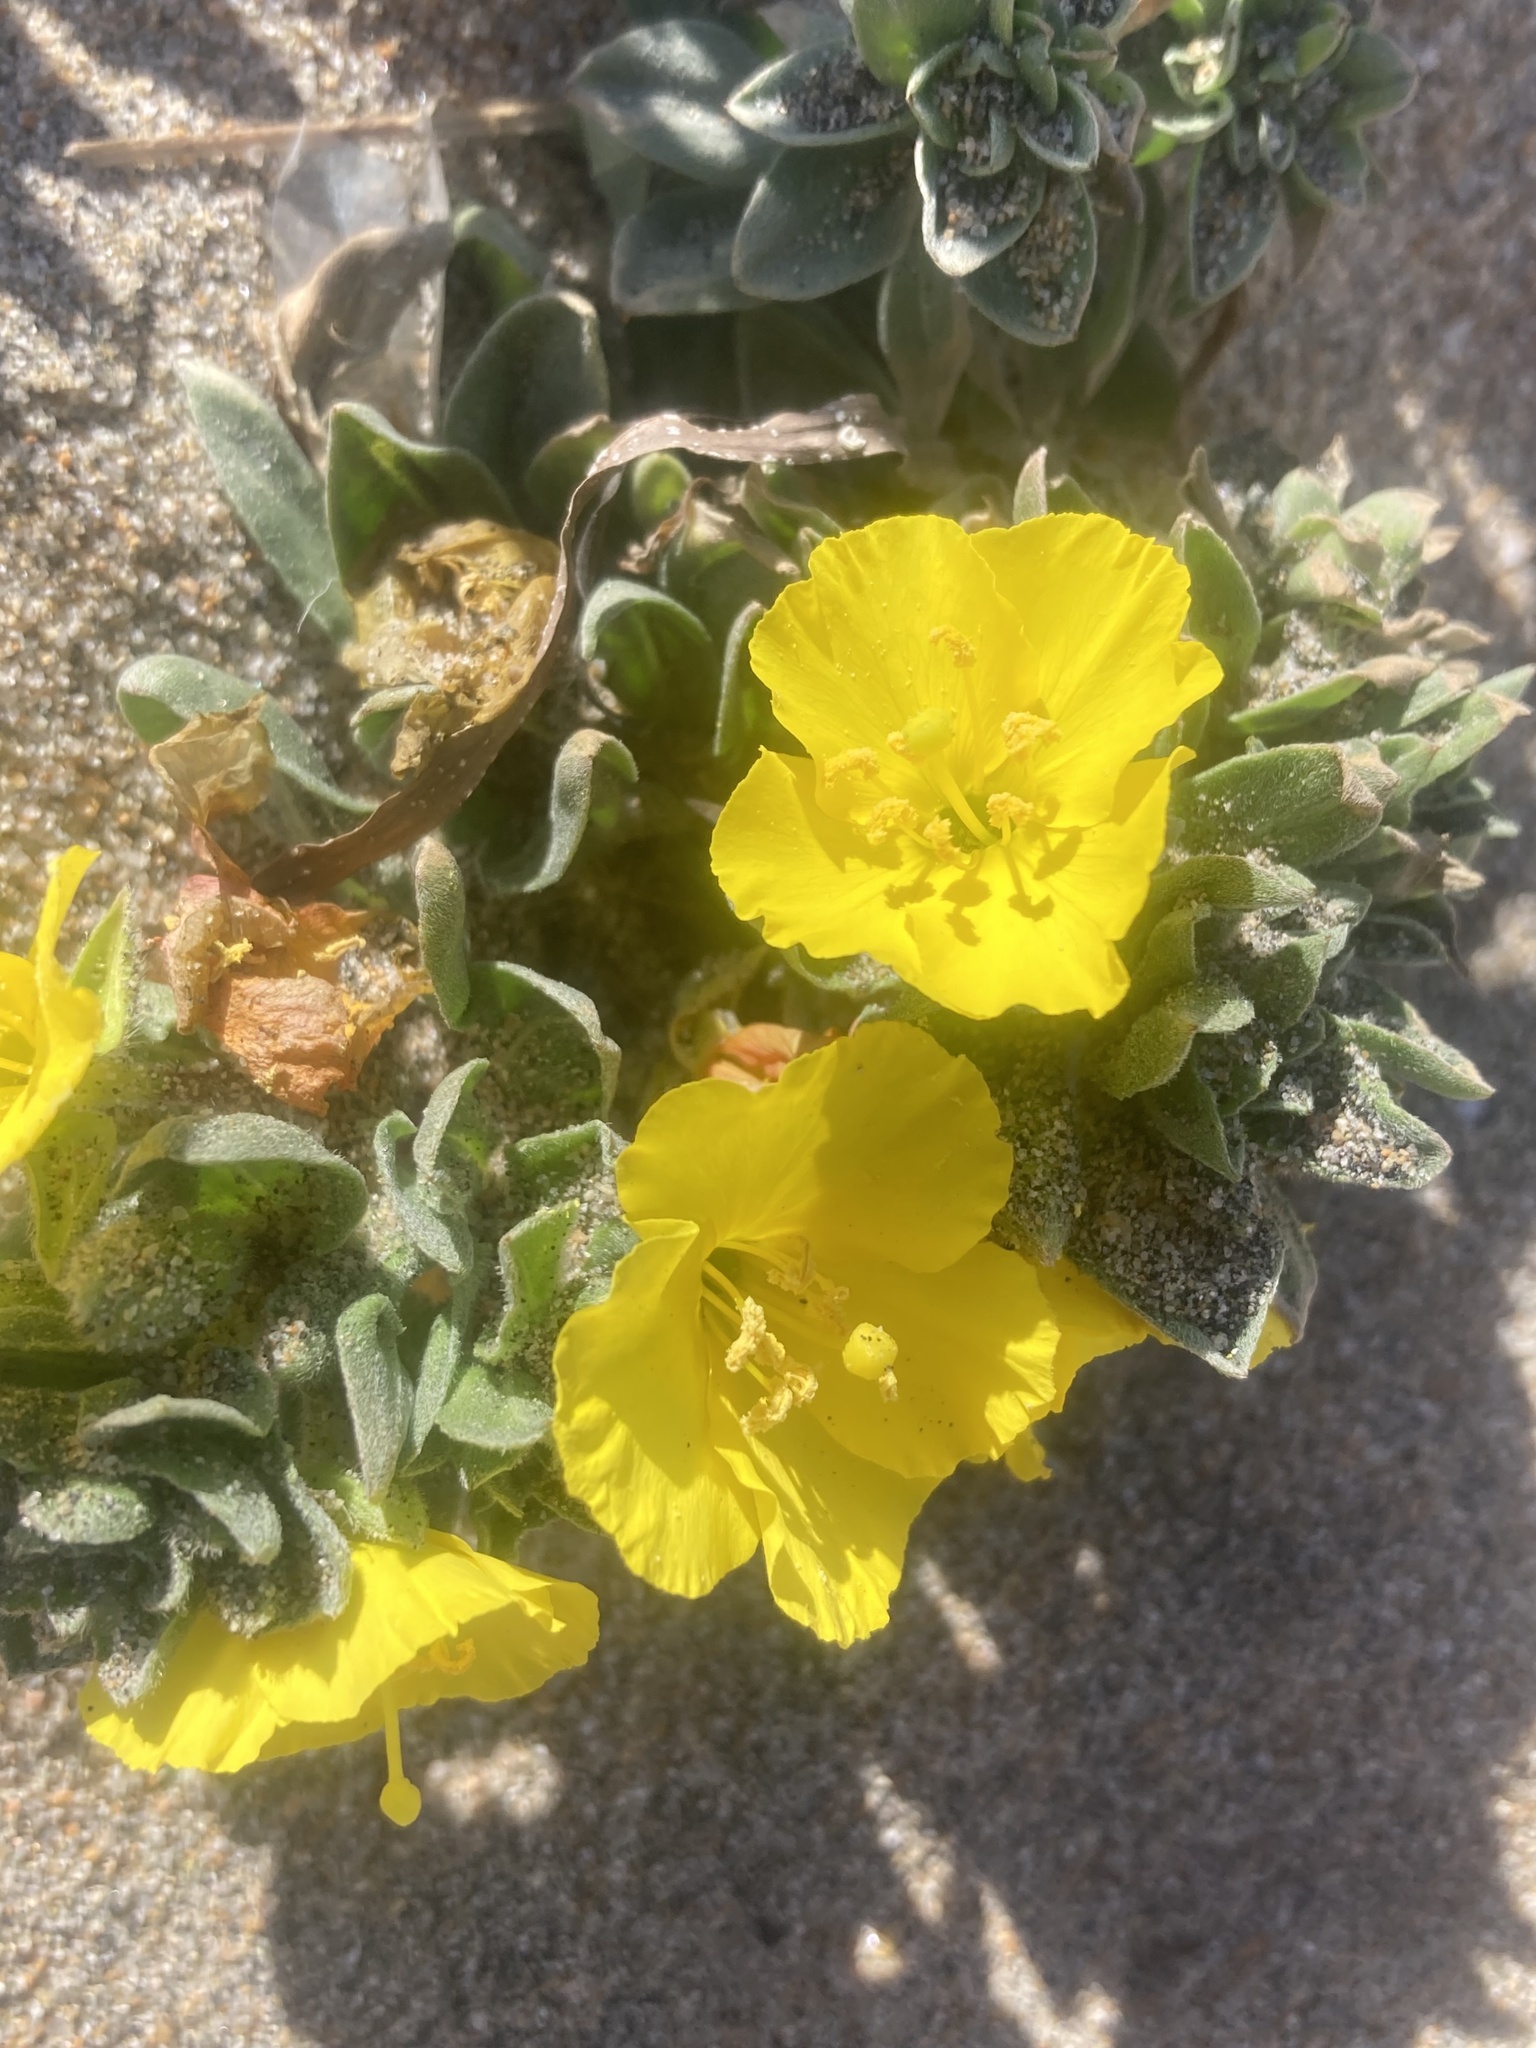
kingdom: Plantae
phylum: Tracheophyta
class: Magnoliopsida
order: Myrtales
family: Onagraceae
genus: Camissoniopsis
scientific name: Camissoniopsis cheiranthifolia
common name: Beach suncup
